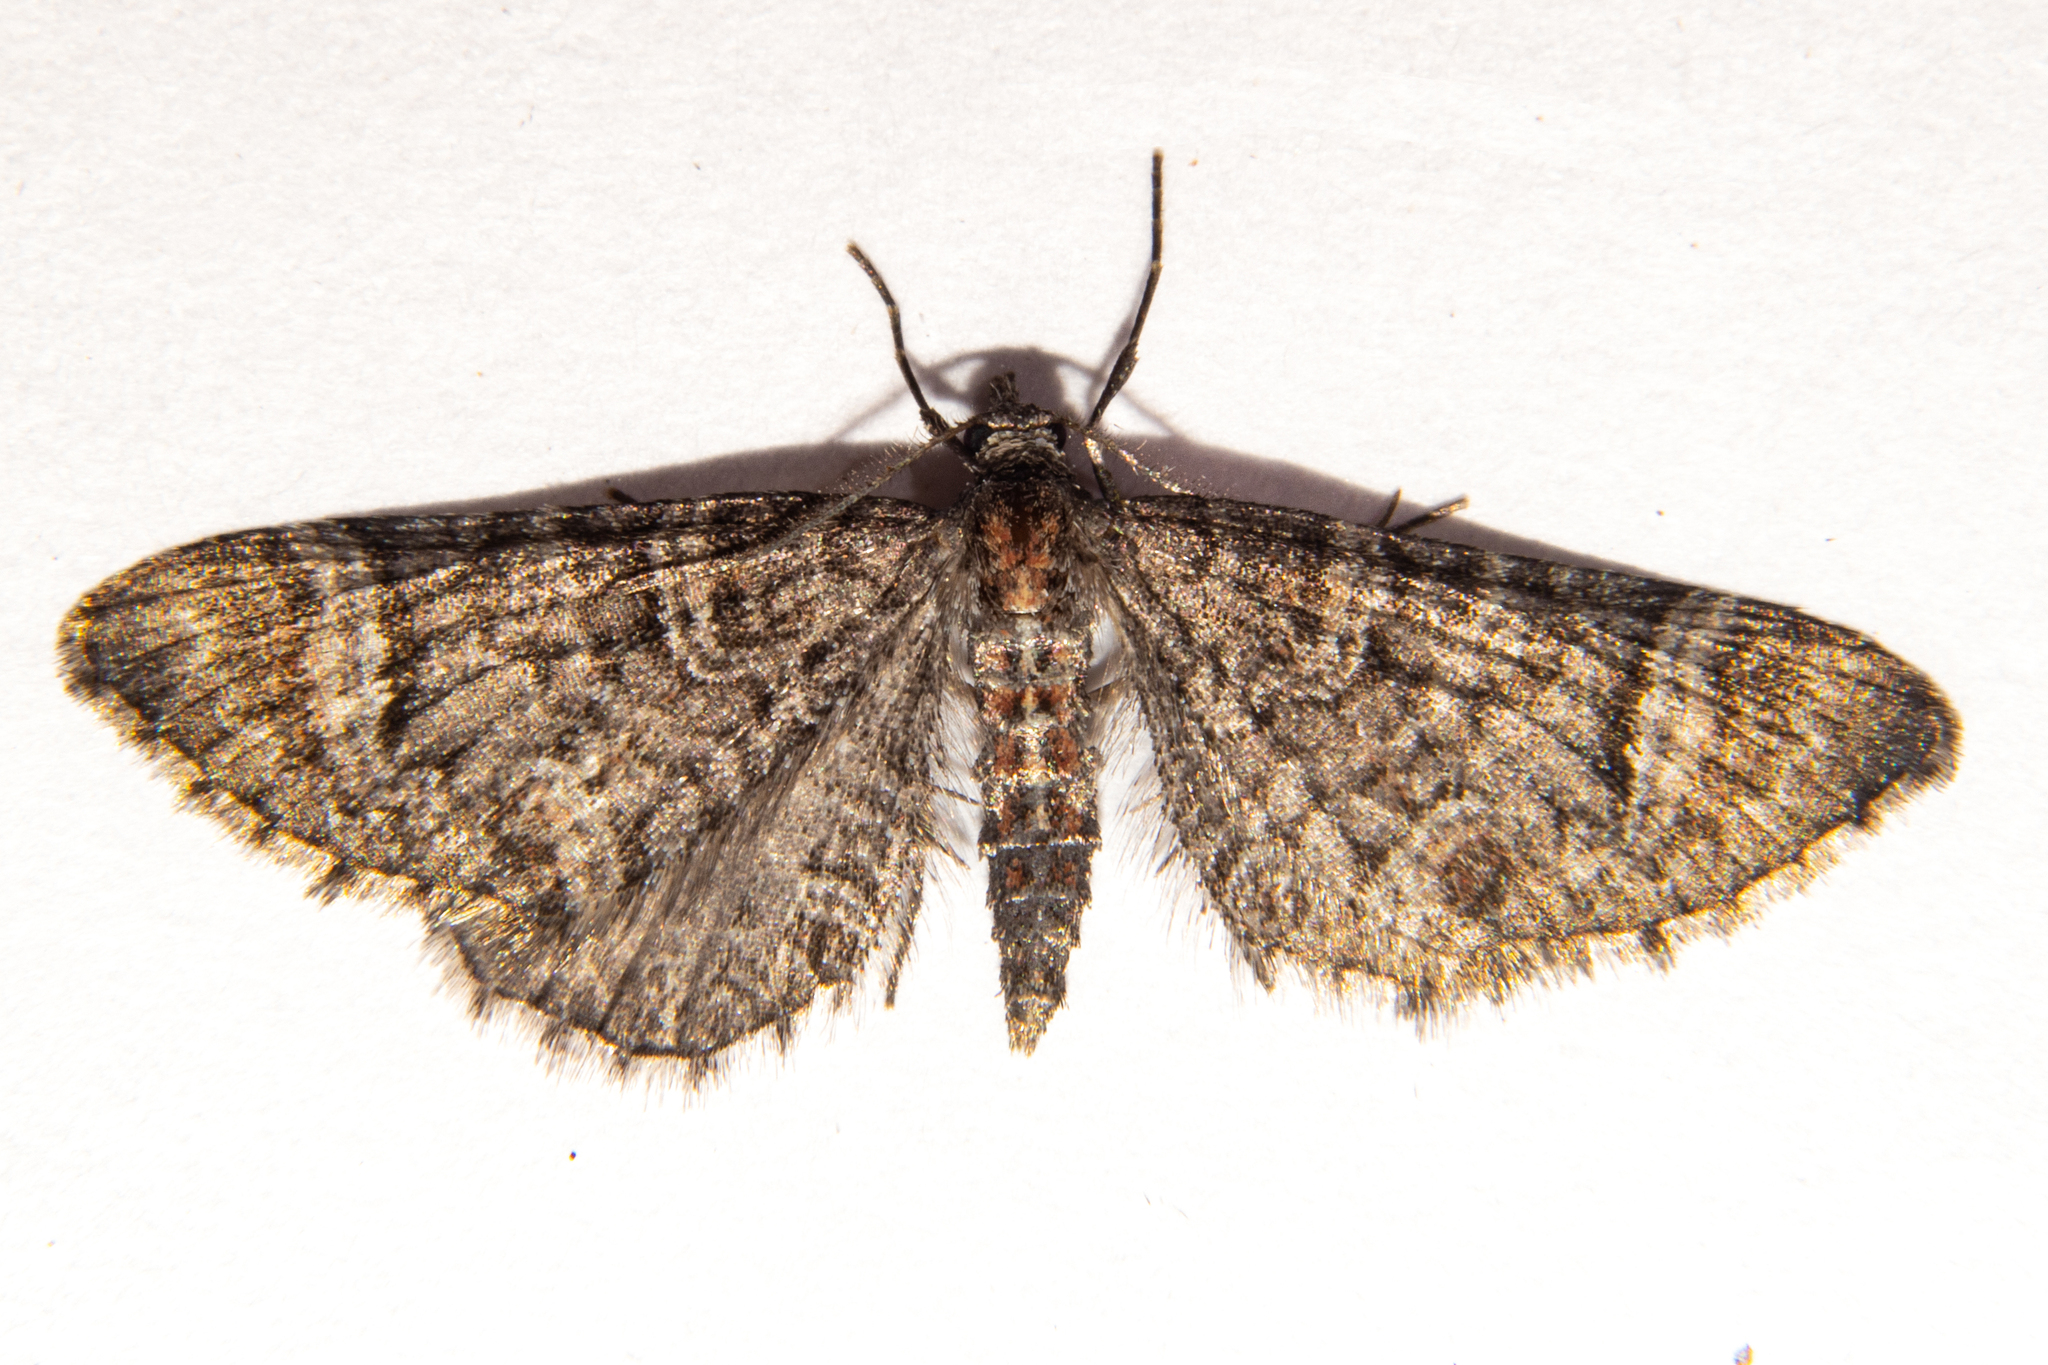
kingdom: Animalia
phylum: Arthropoda
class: Insecta
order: Lepidoptera
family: Geometridae
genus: Pasiphila
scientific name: Pasiphila erratica
